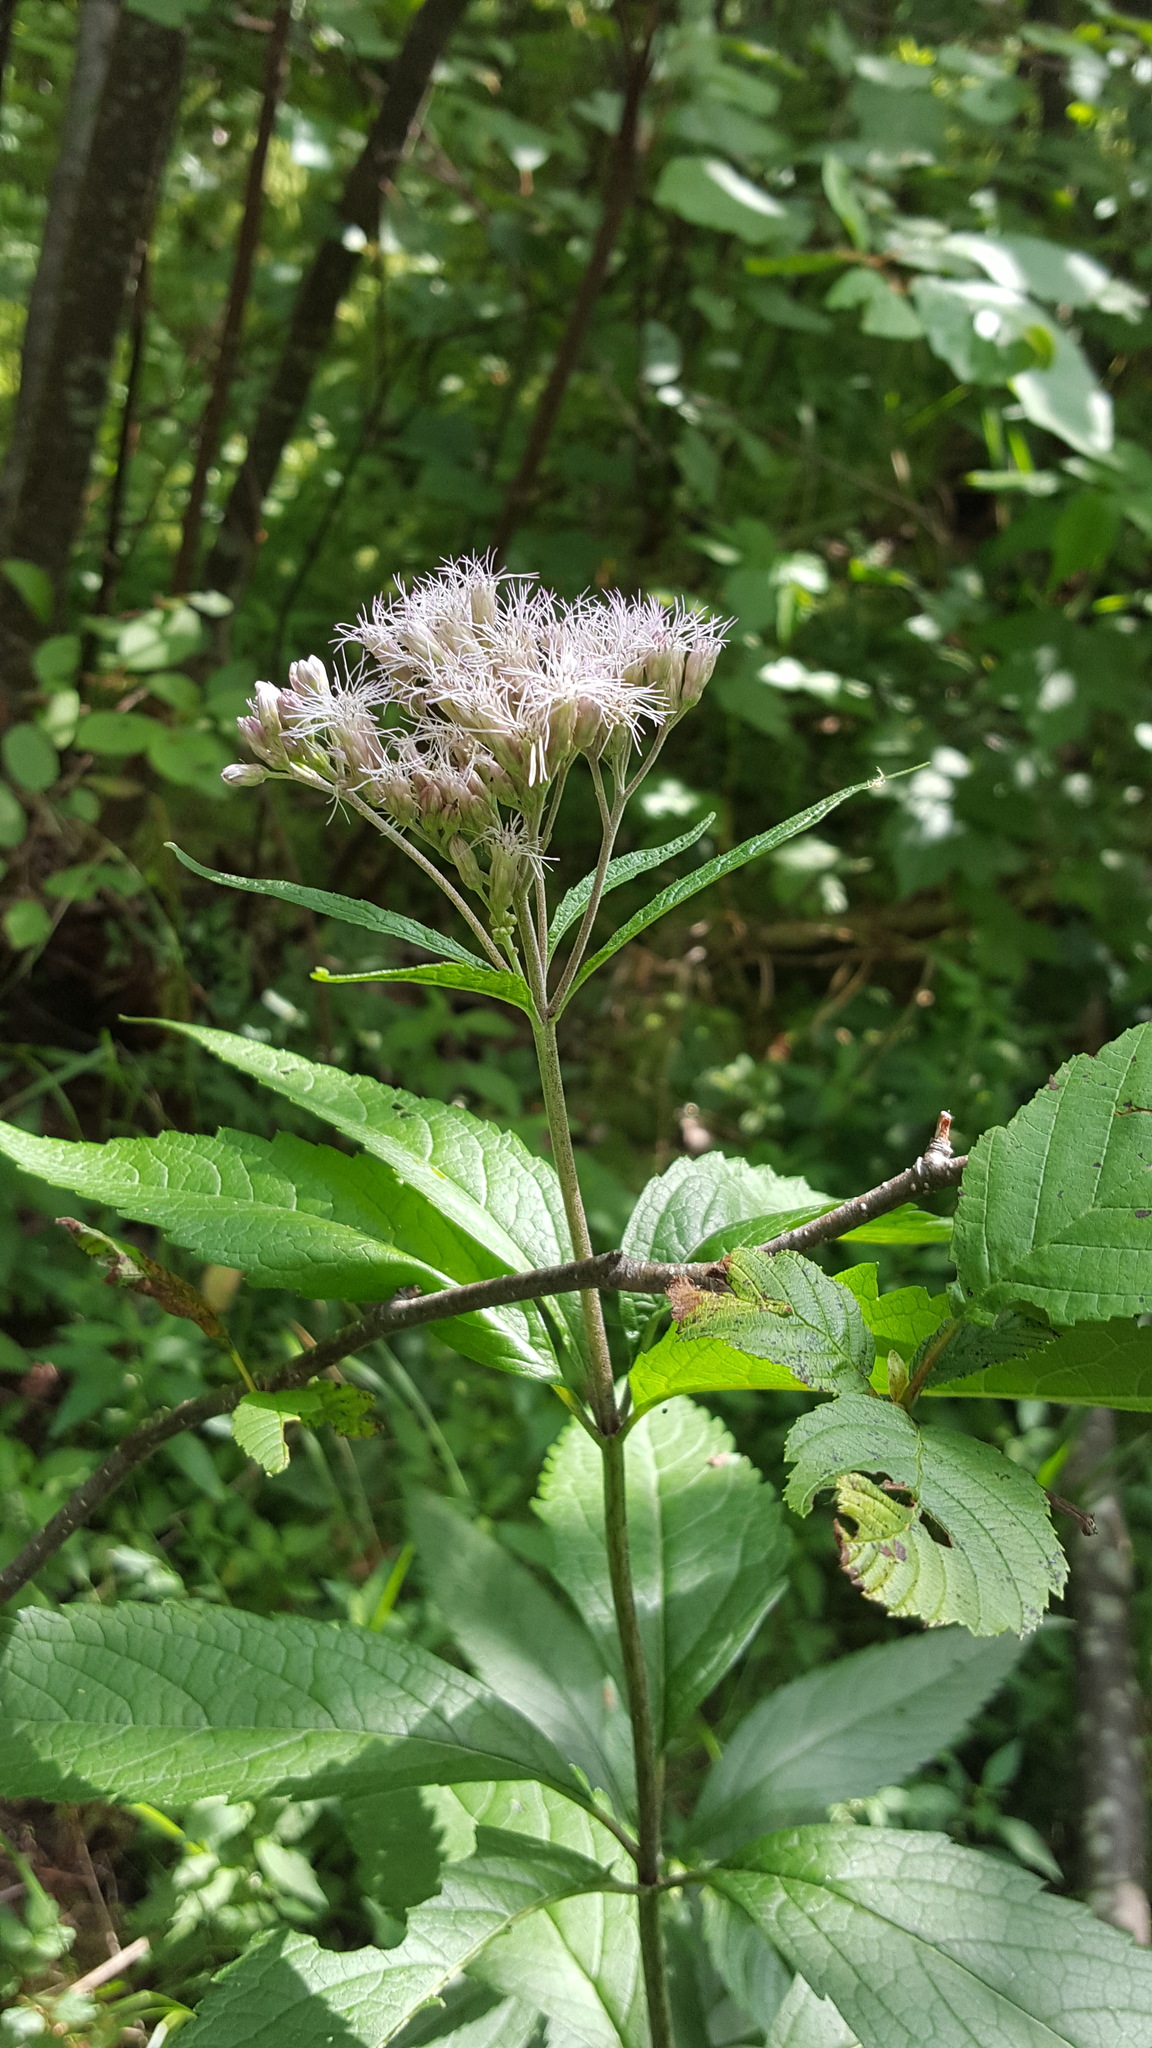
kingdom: Plantae
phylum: Tracheophyta
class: Magnoliopsida
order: Asterales
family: Asteraceae
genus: Eutrochium
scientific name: Eutrochium maculatum
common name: Spotted joe pye weed
